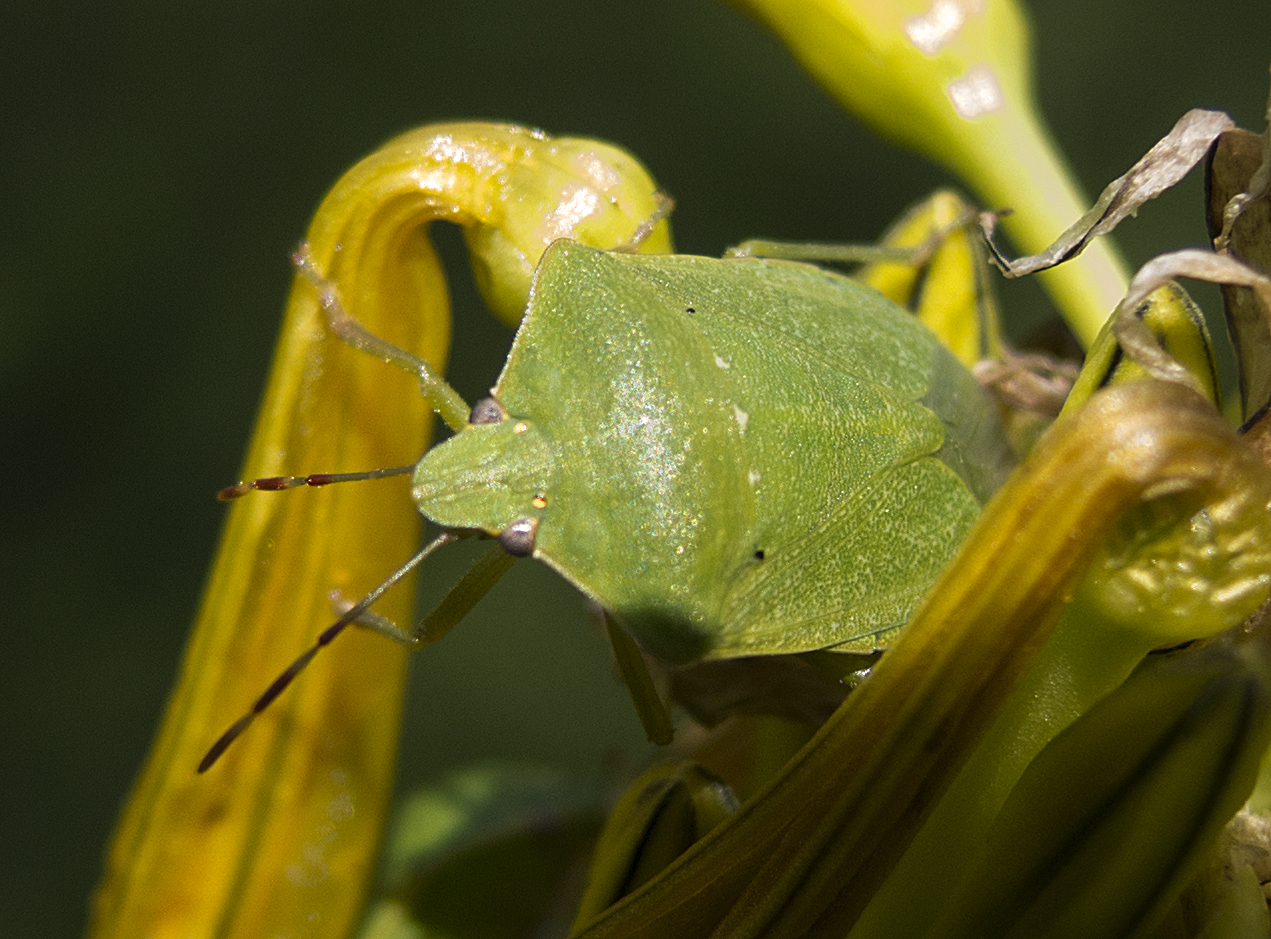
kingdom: Animalia
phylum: Arthropoda
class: Insecta
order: Hemiptera
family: Pentatomidae
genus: Nezara
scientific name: Nezara viridula
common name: Southern green stink bug
